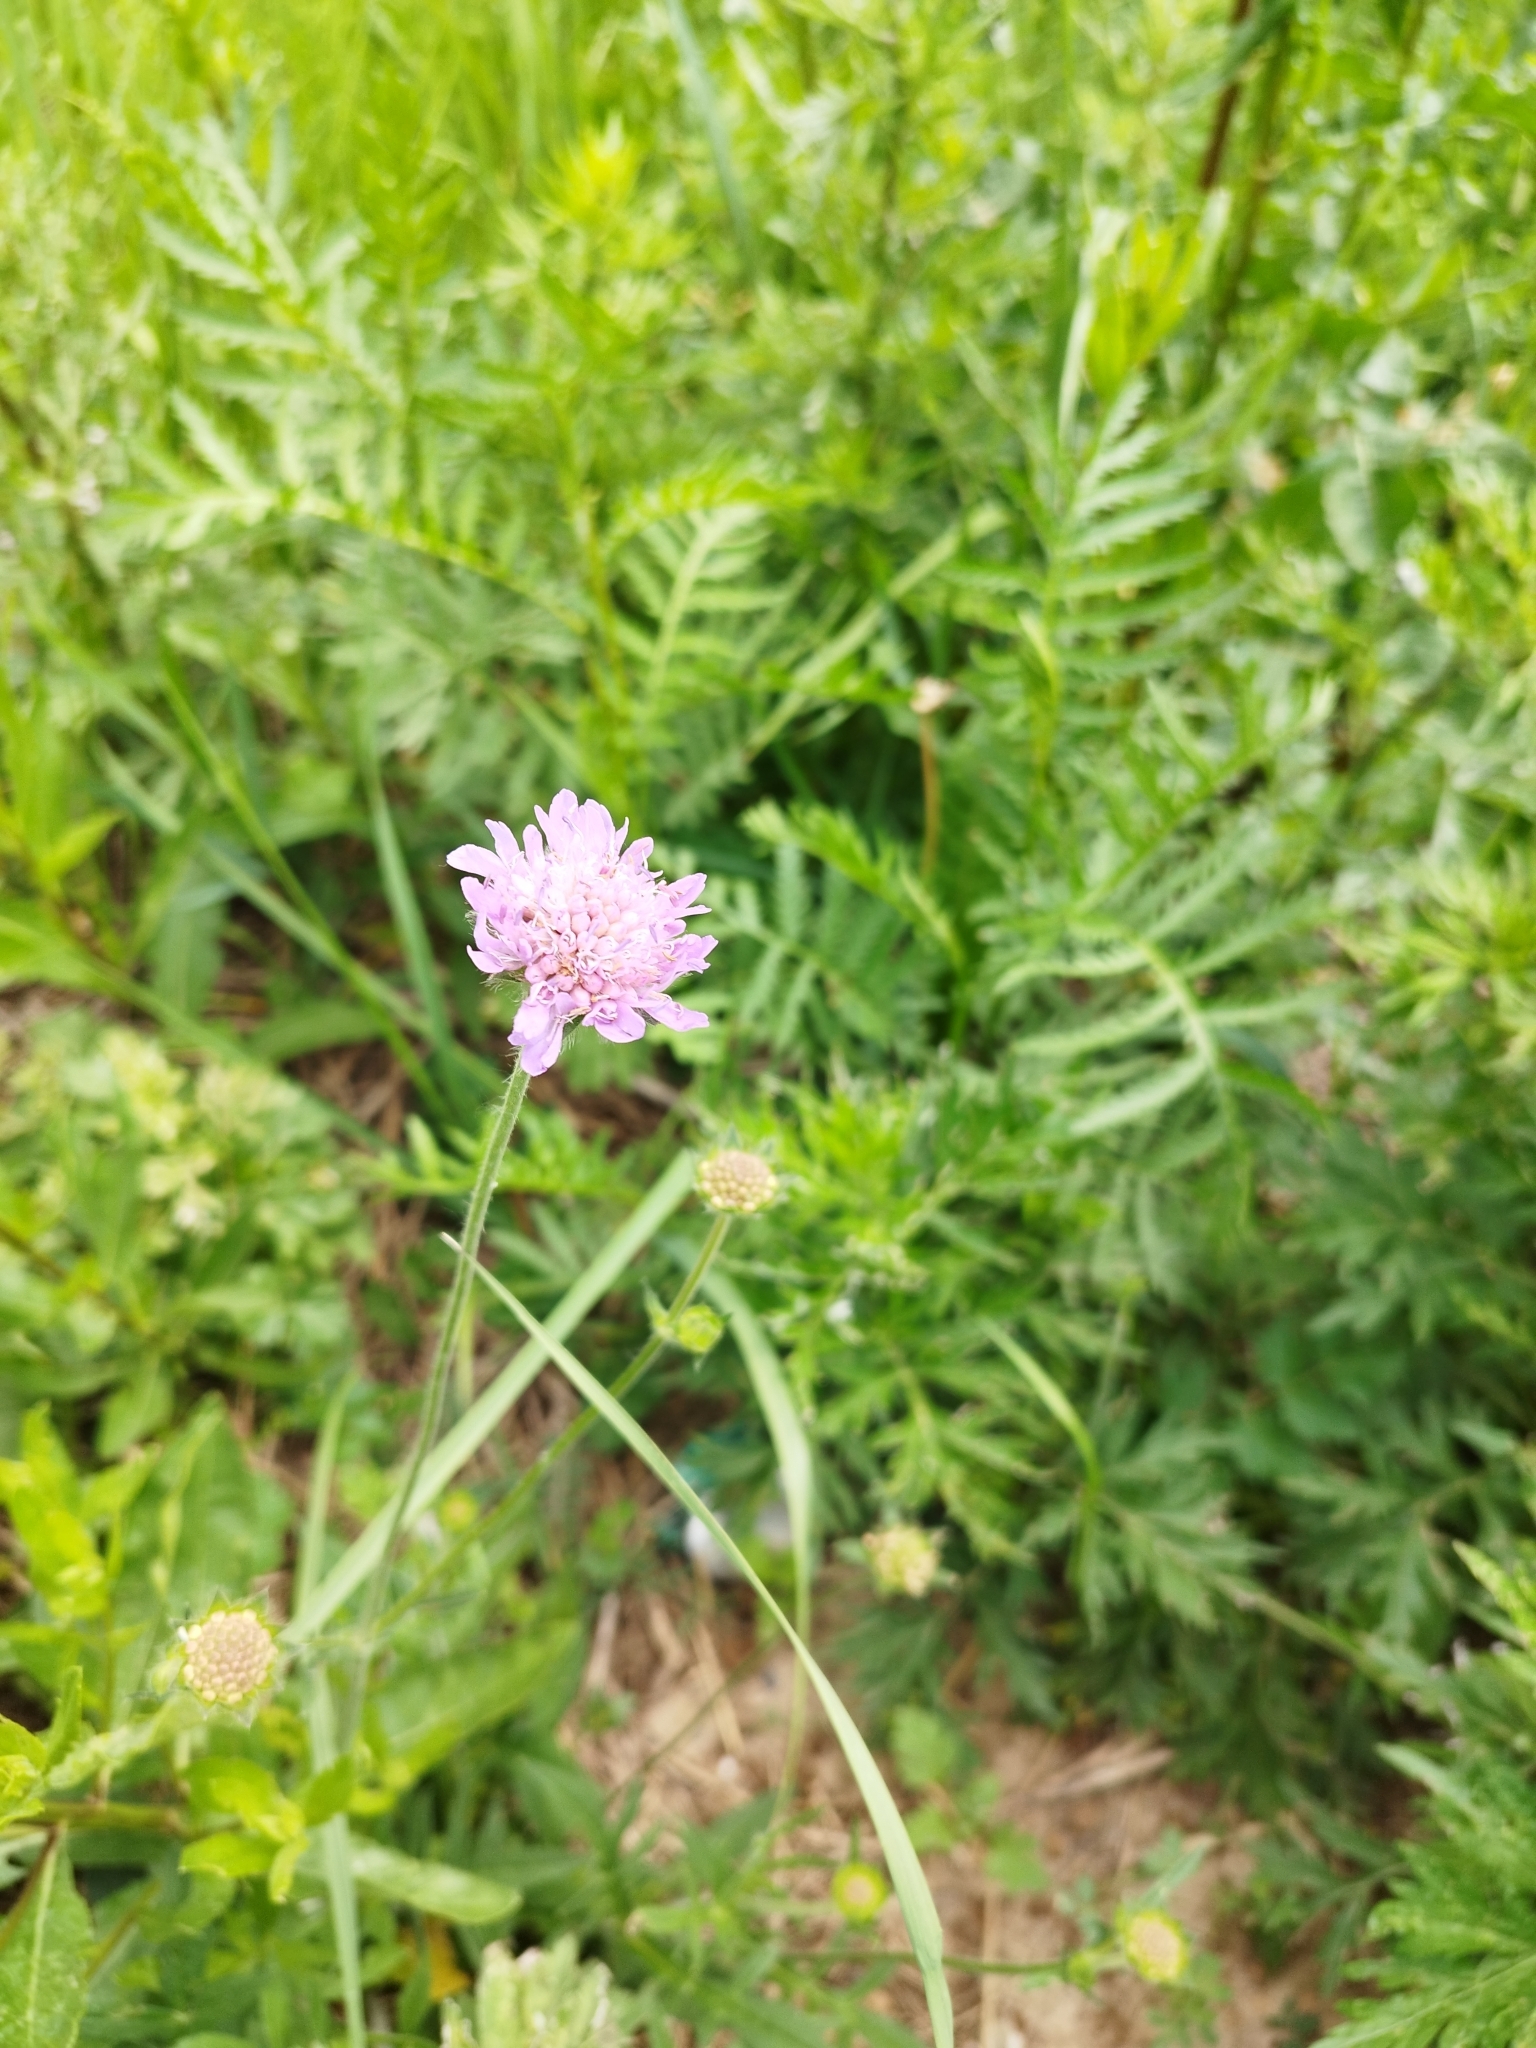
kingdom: Plantae
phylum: Tracheophyta
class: Magnoliopsida
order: Dipsacales
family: Caprifoliaceae
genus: Knautia
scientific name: Knautia arvensis
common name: Field scabiosa
